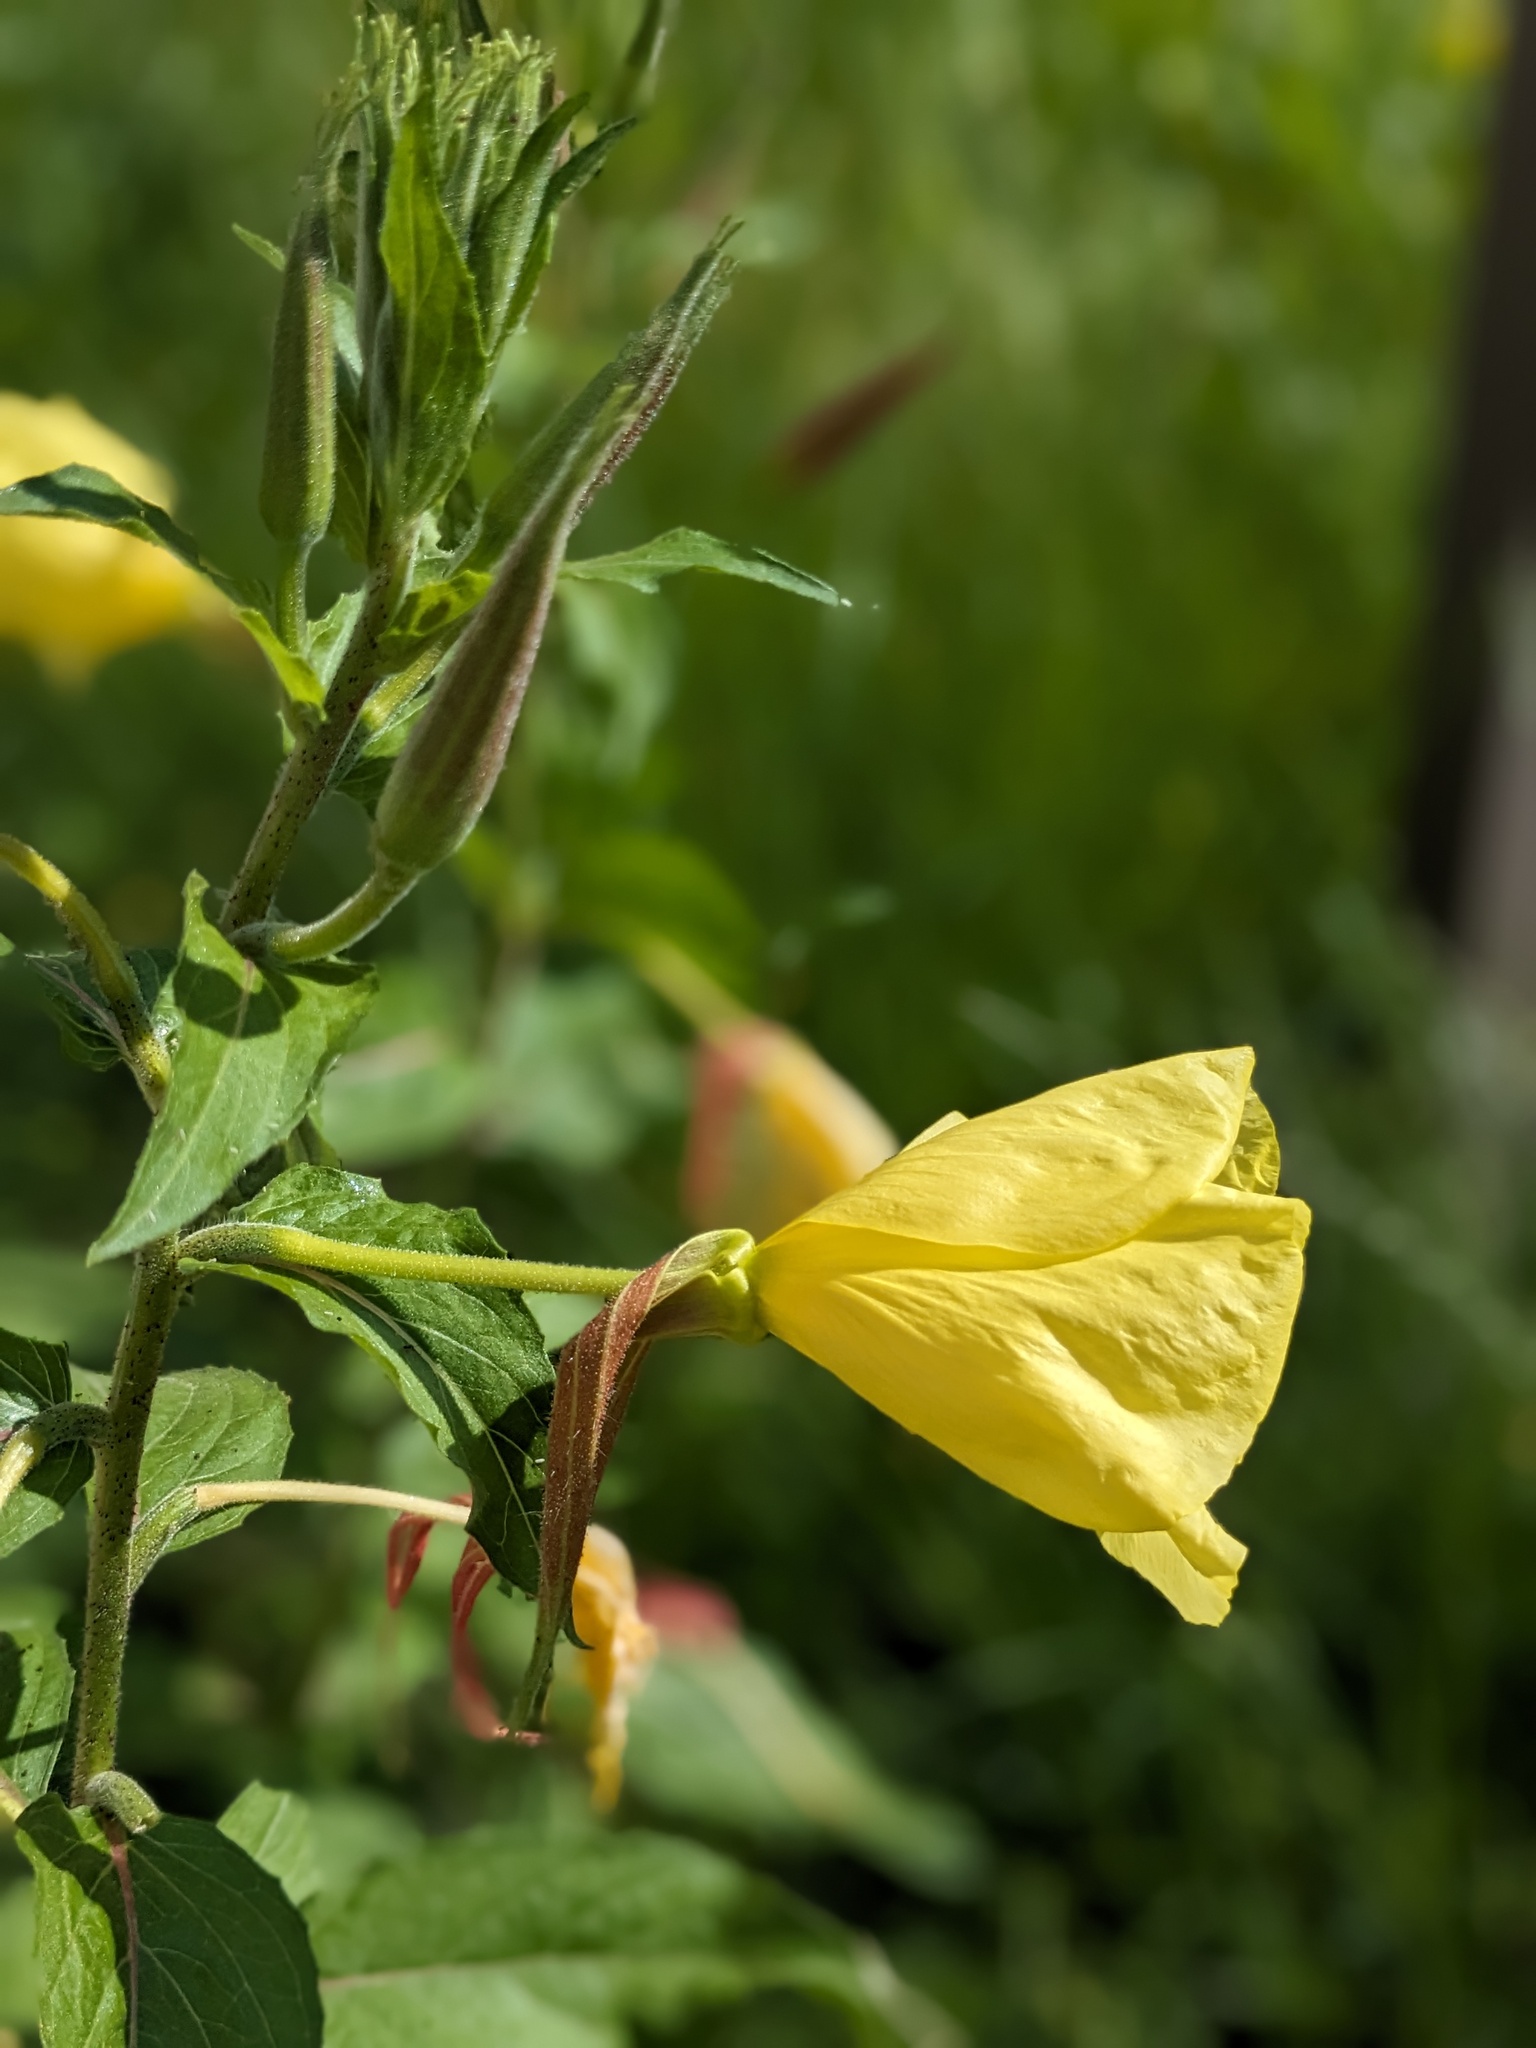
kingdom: Plantae
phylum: Tracheophyta
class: Magnoliopsida
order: Myrtales
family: Onagraceae
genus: Oenothera
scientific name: Oenothera glazioviana
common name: Large-flowered evening-primrose
